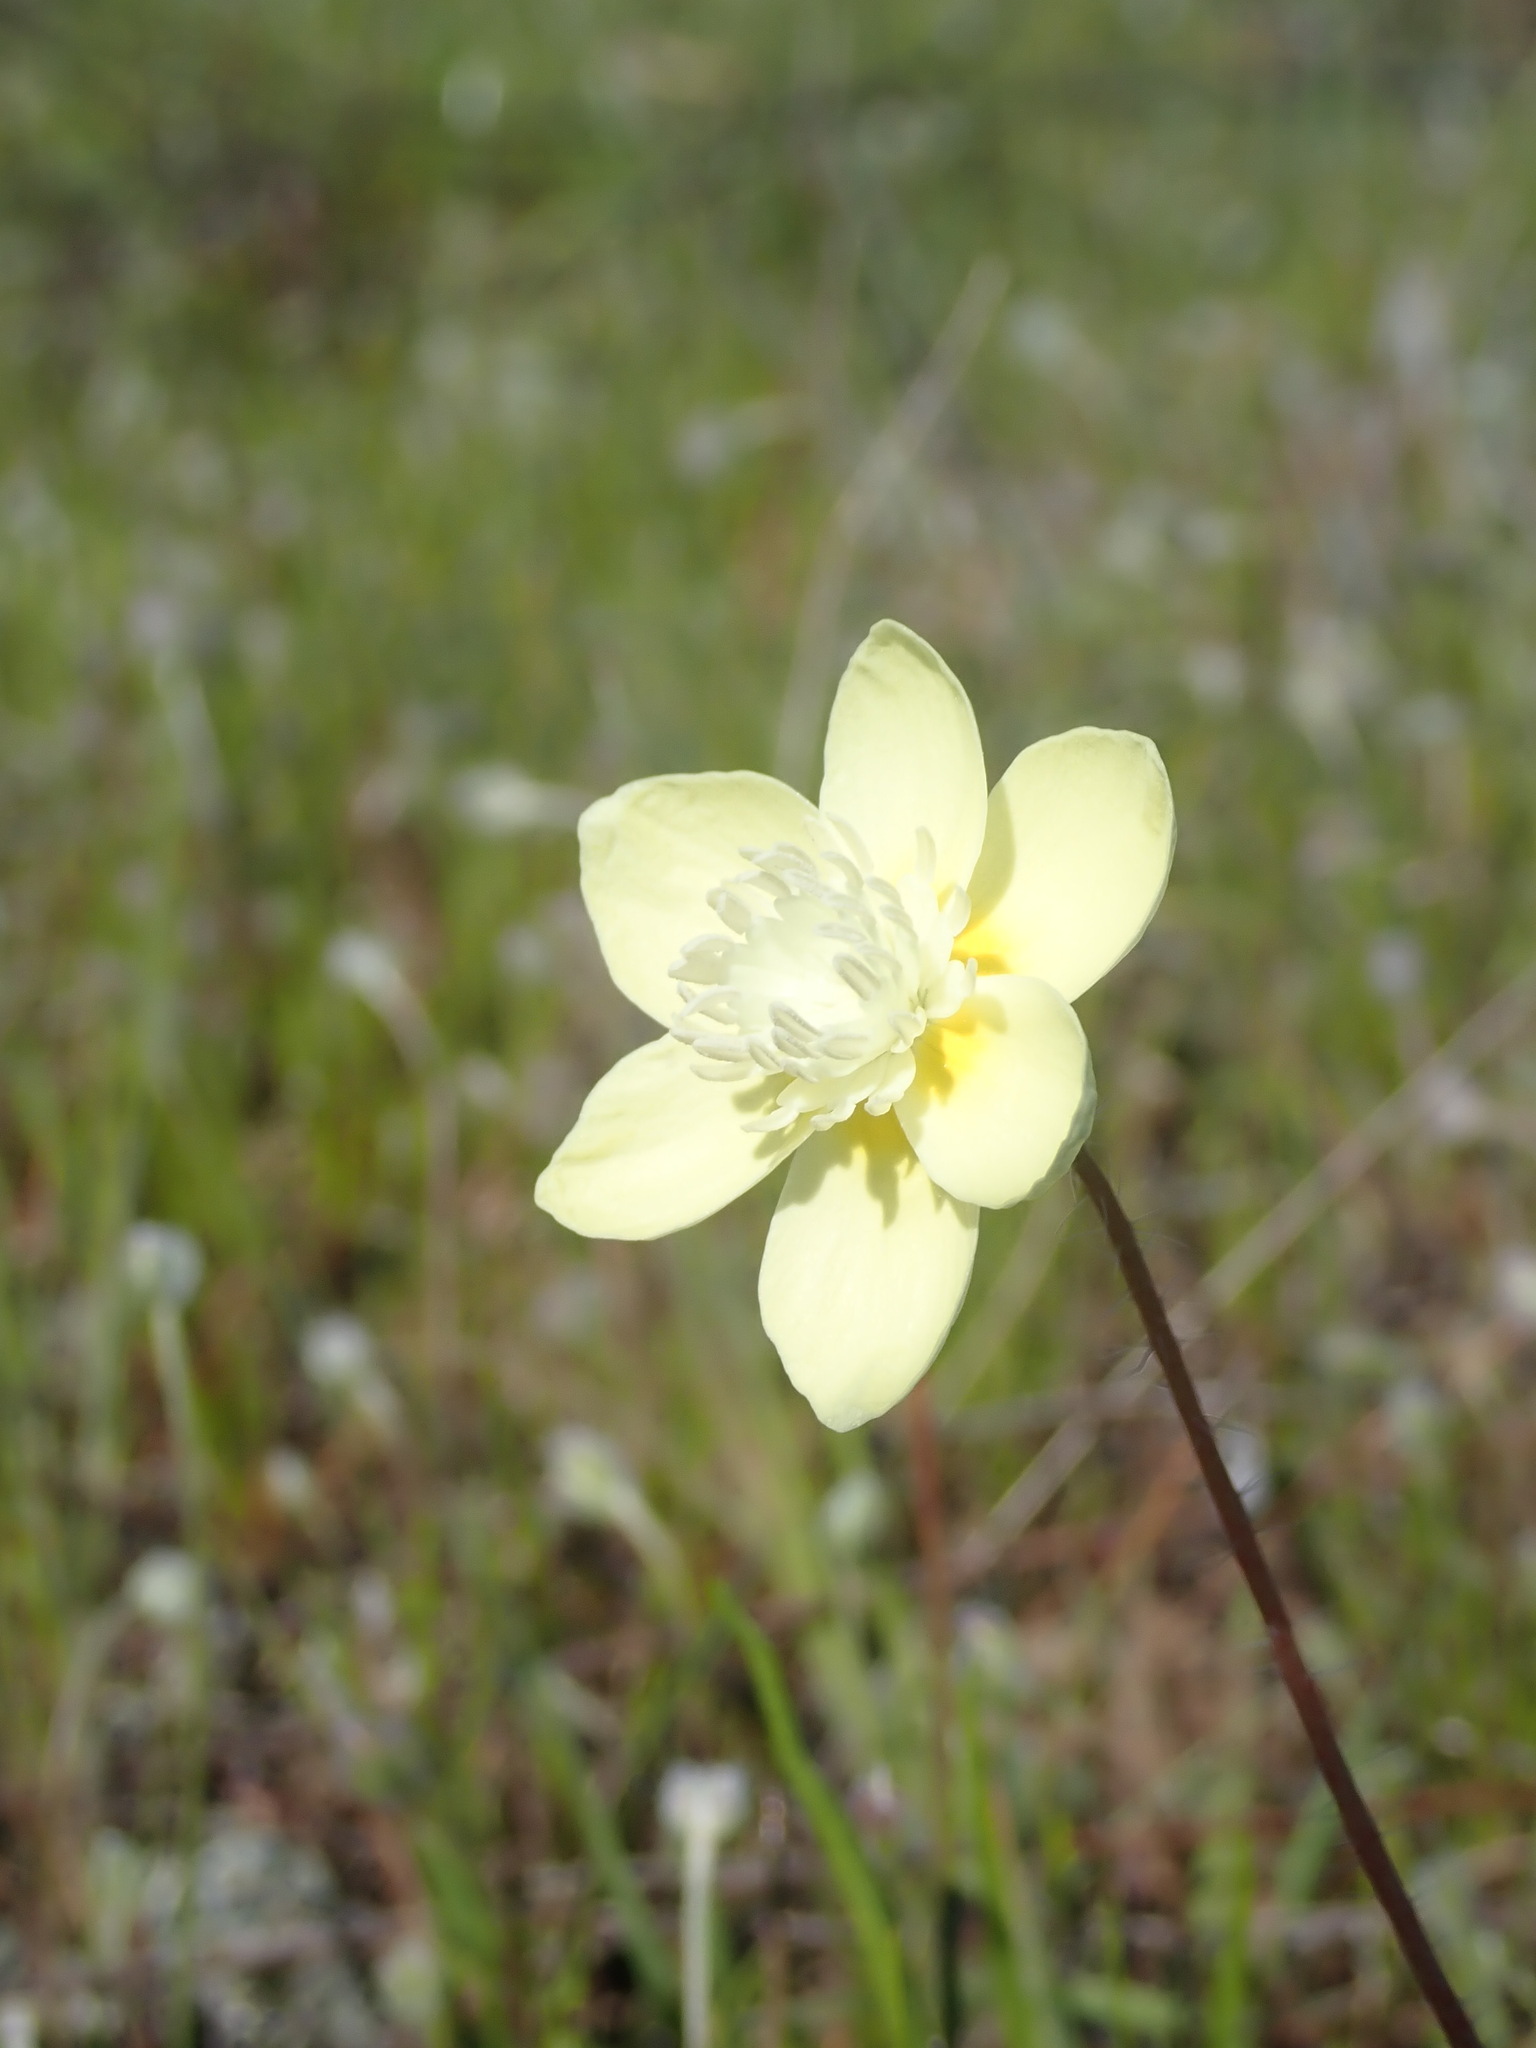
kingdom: Plantae
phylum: Tracheophyta
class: Magnoliopsida
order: Ranunculales
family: Papaveraceae
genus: Platystemon
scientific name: Platystemon californicus
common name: Cream-cups
